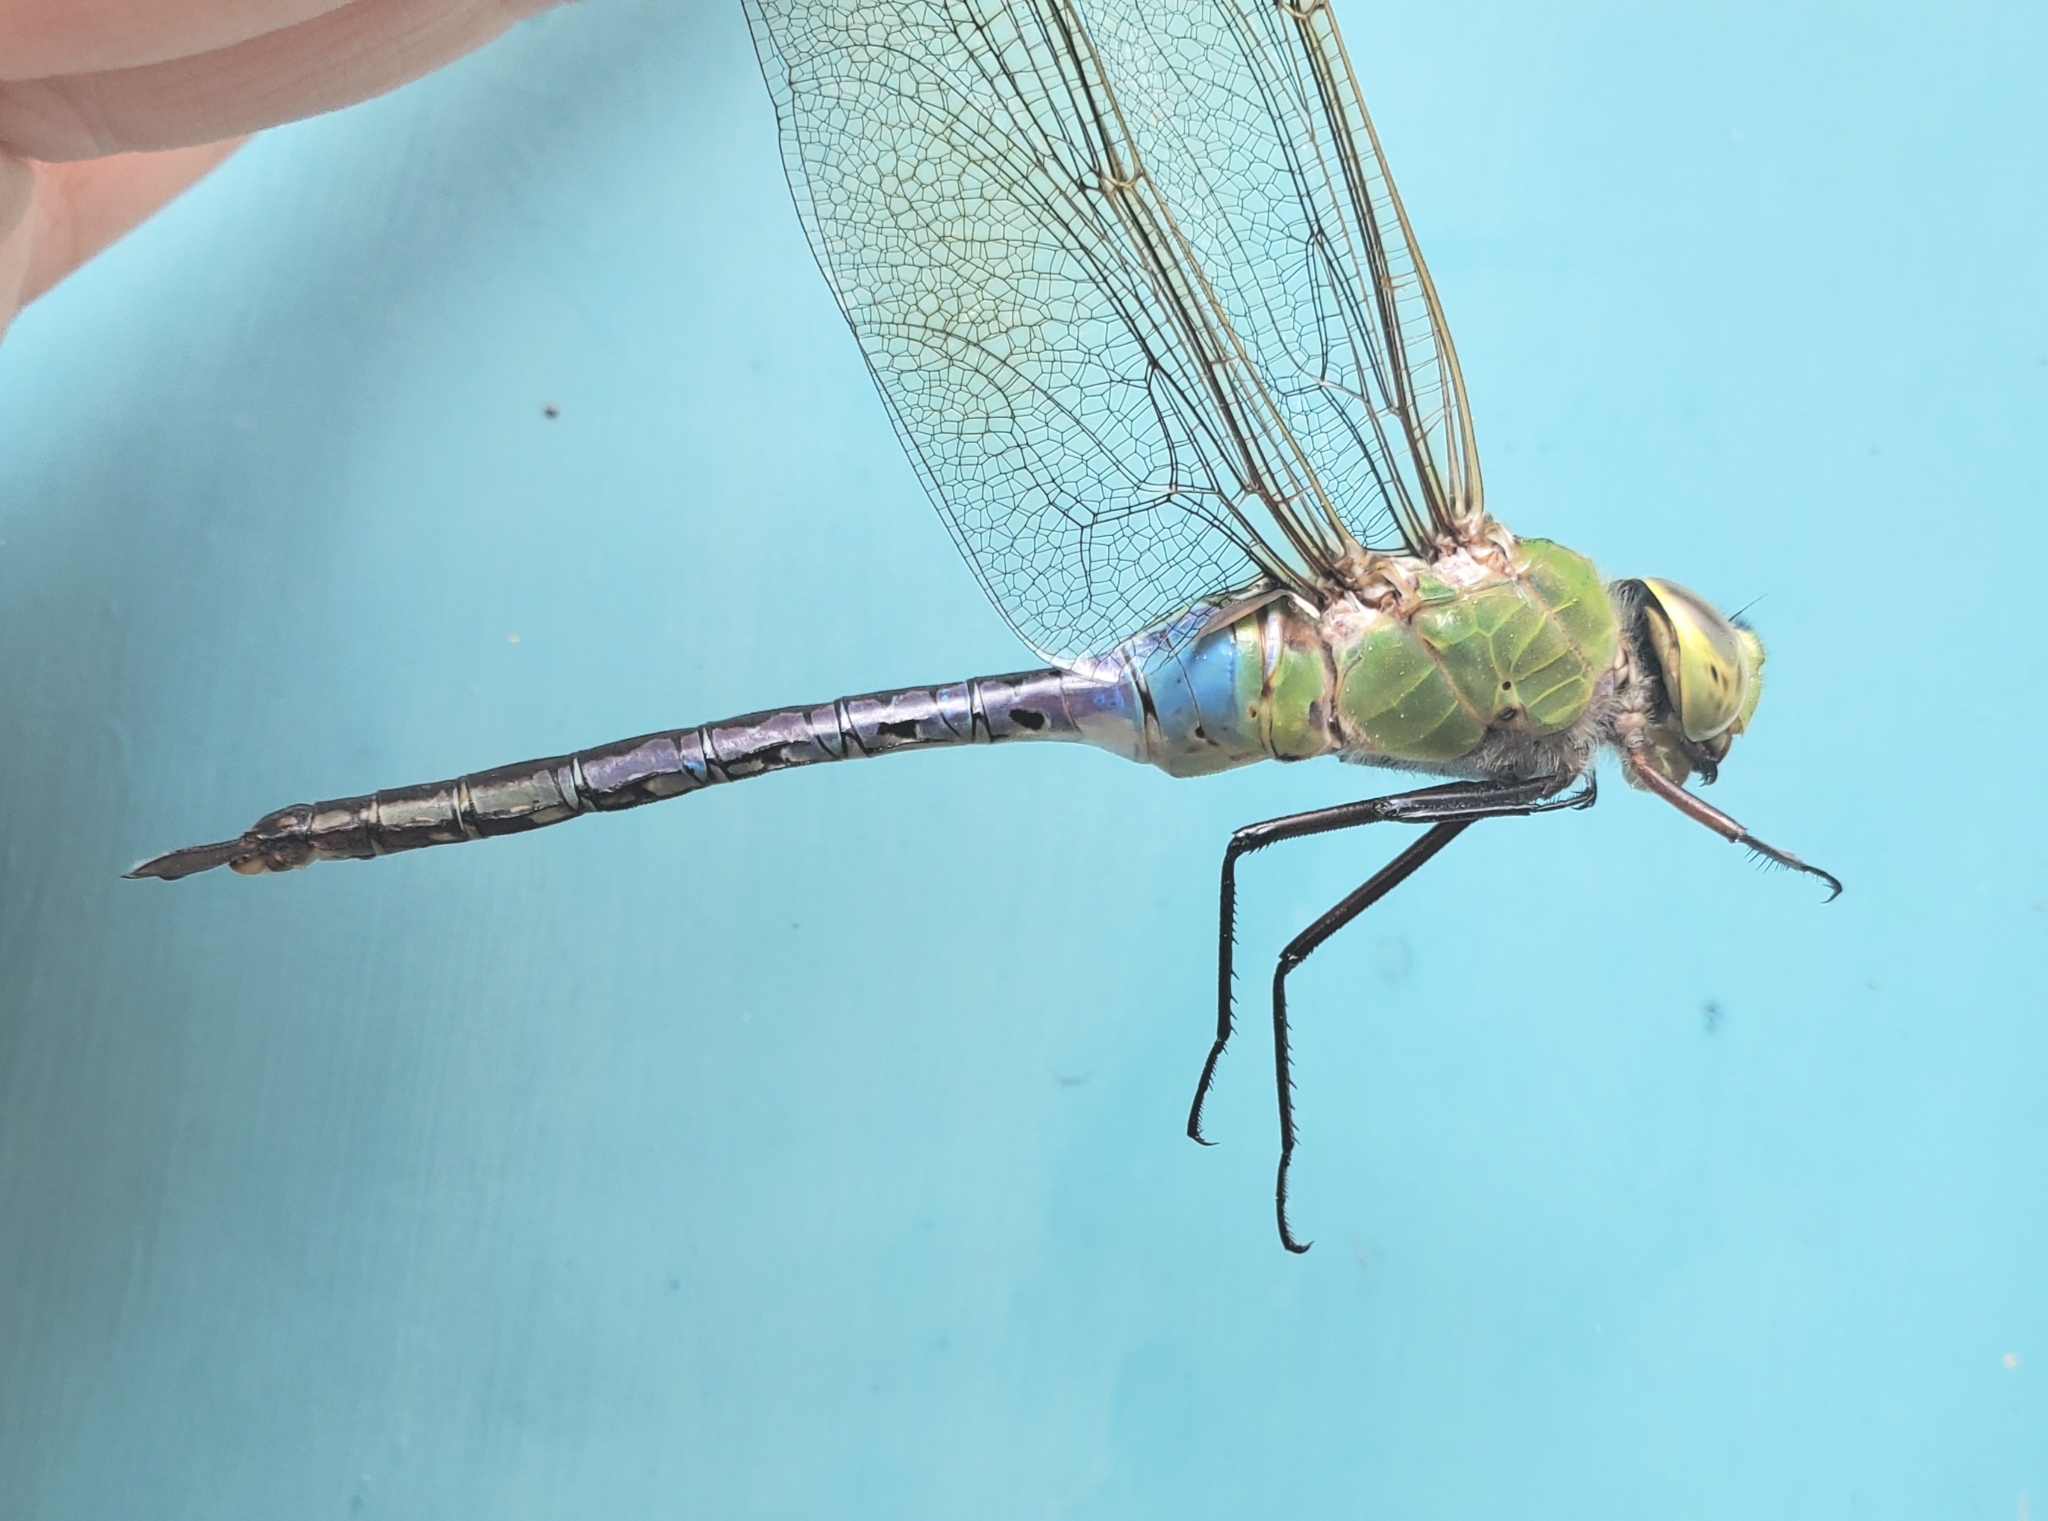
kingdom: Animalia
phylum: Arthropoda
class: Insecta
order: Odonata
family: Aeshnidae
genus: Anax
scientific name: Anax junius
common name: Common green darner
